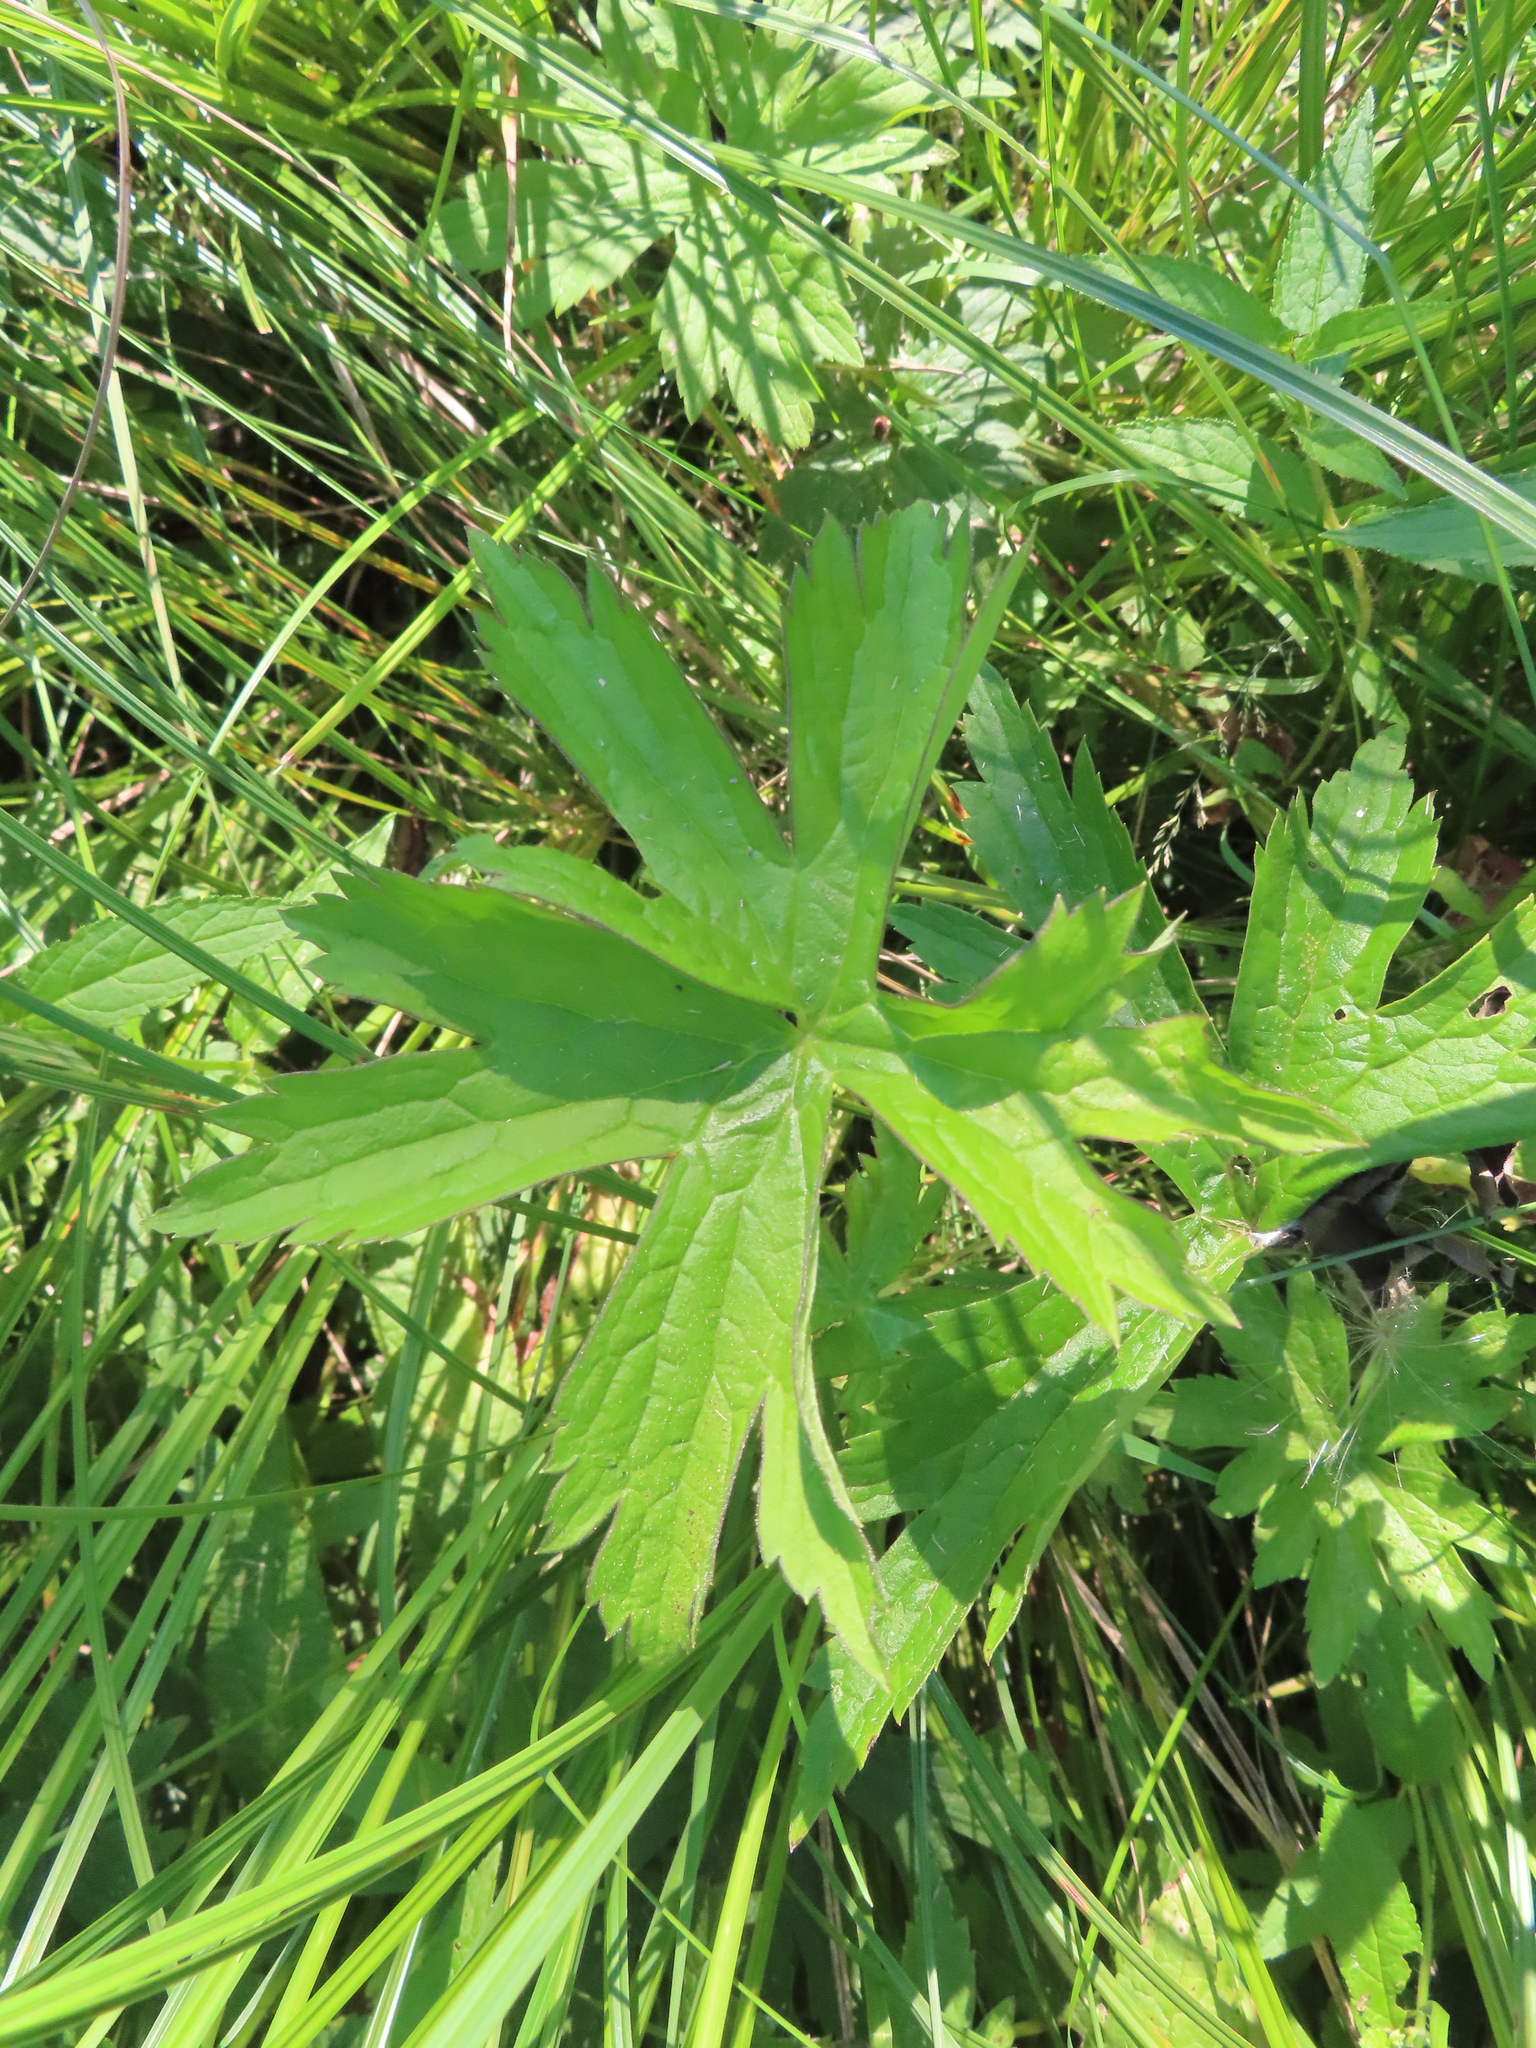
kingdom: Plantae
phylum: Tracheophyta
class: Magnoliopsida
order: Ranunculales
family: Ranunculaceae
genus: Anemonastrum
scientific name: Anemonastrum canadense
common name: Canada anemone
